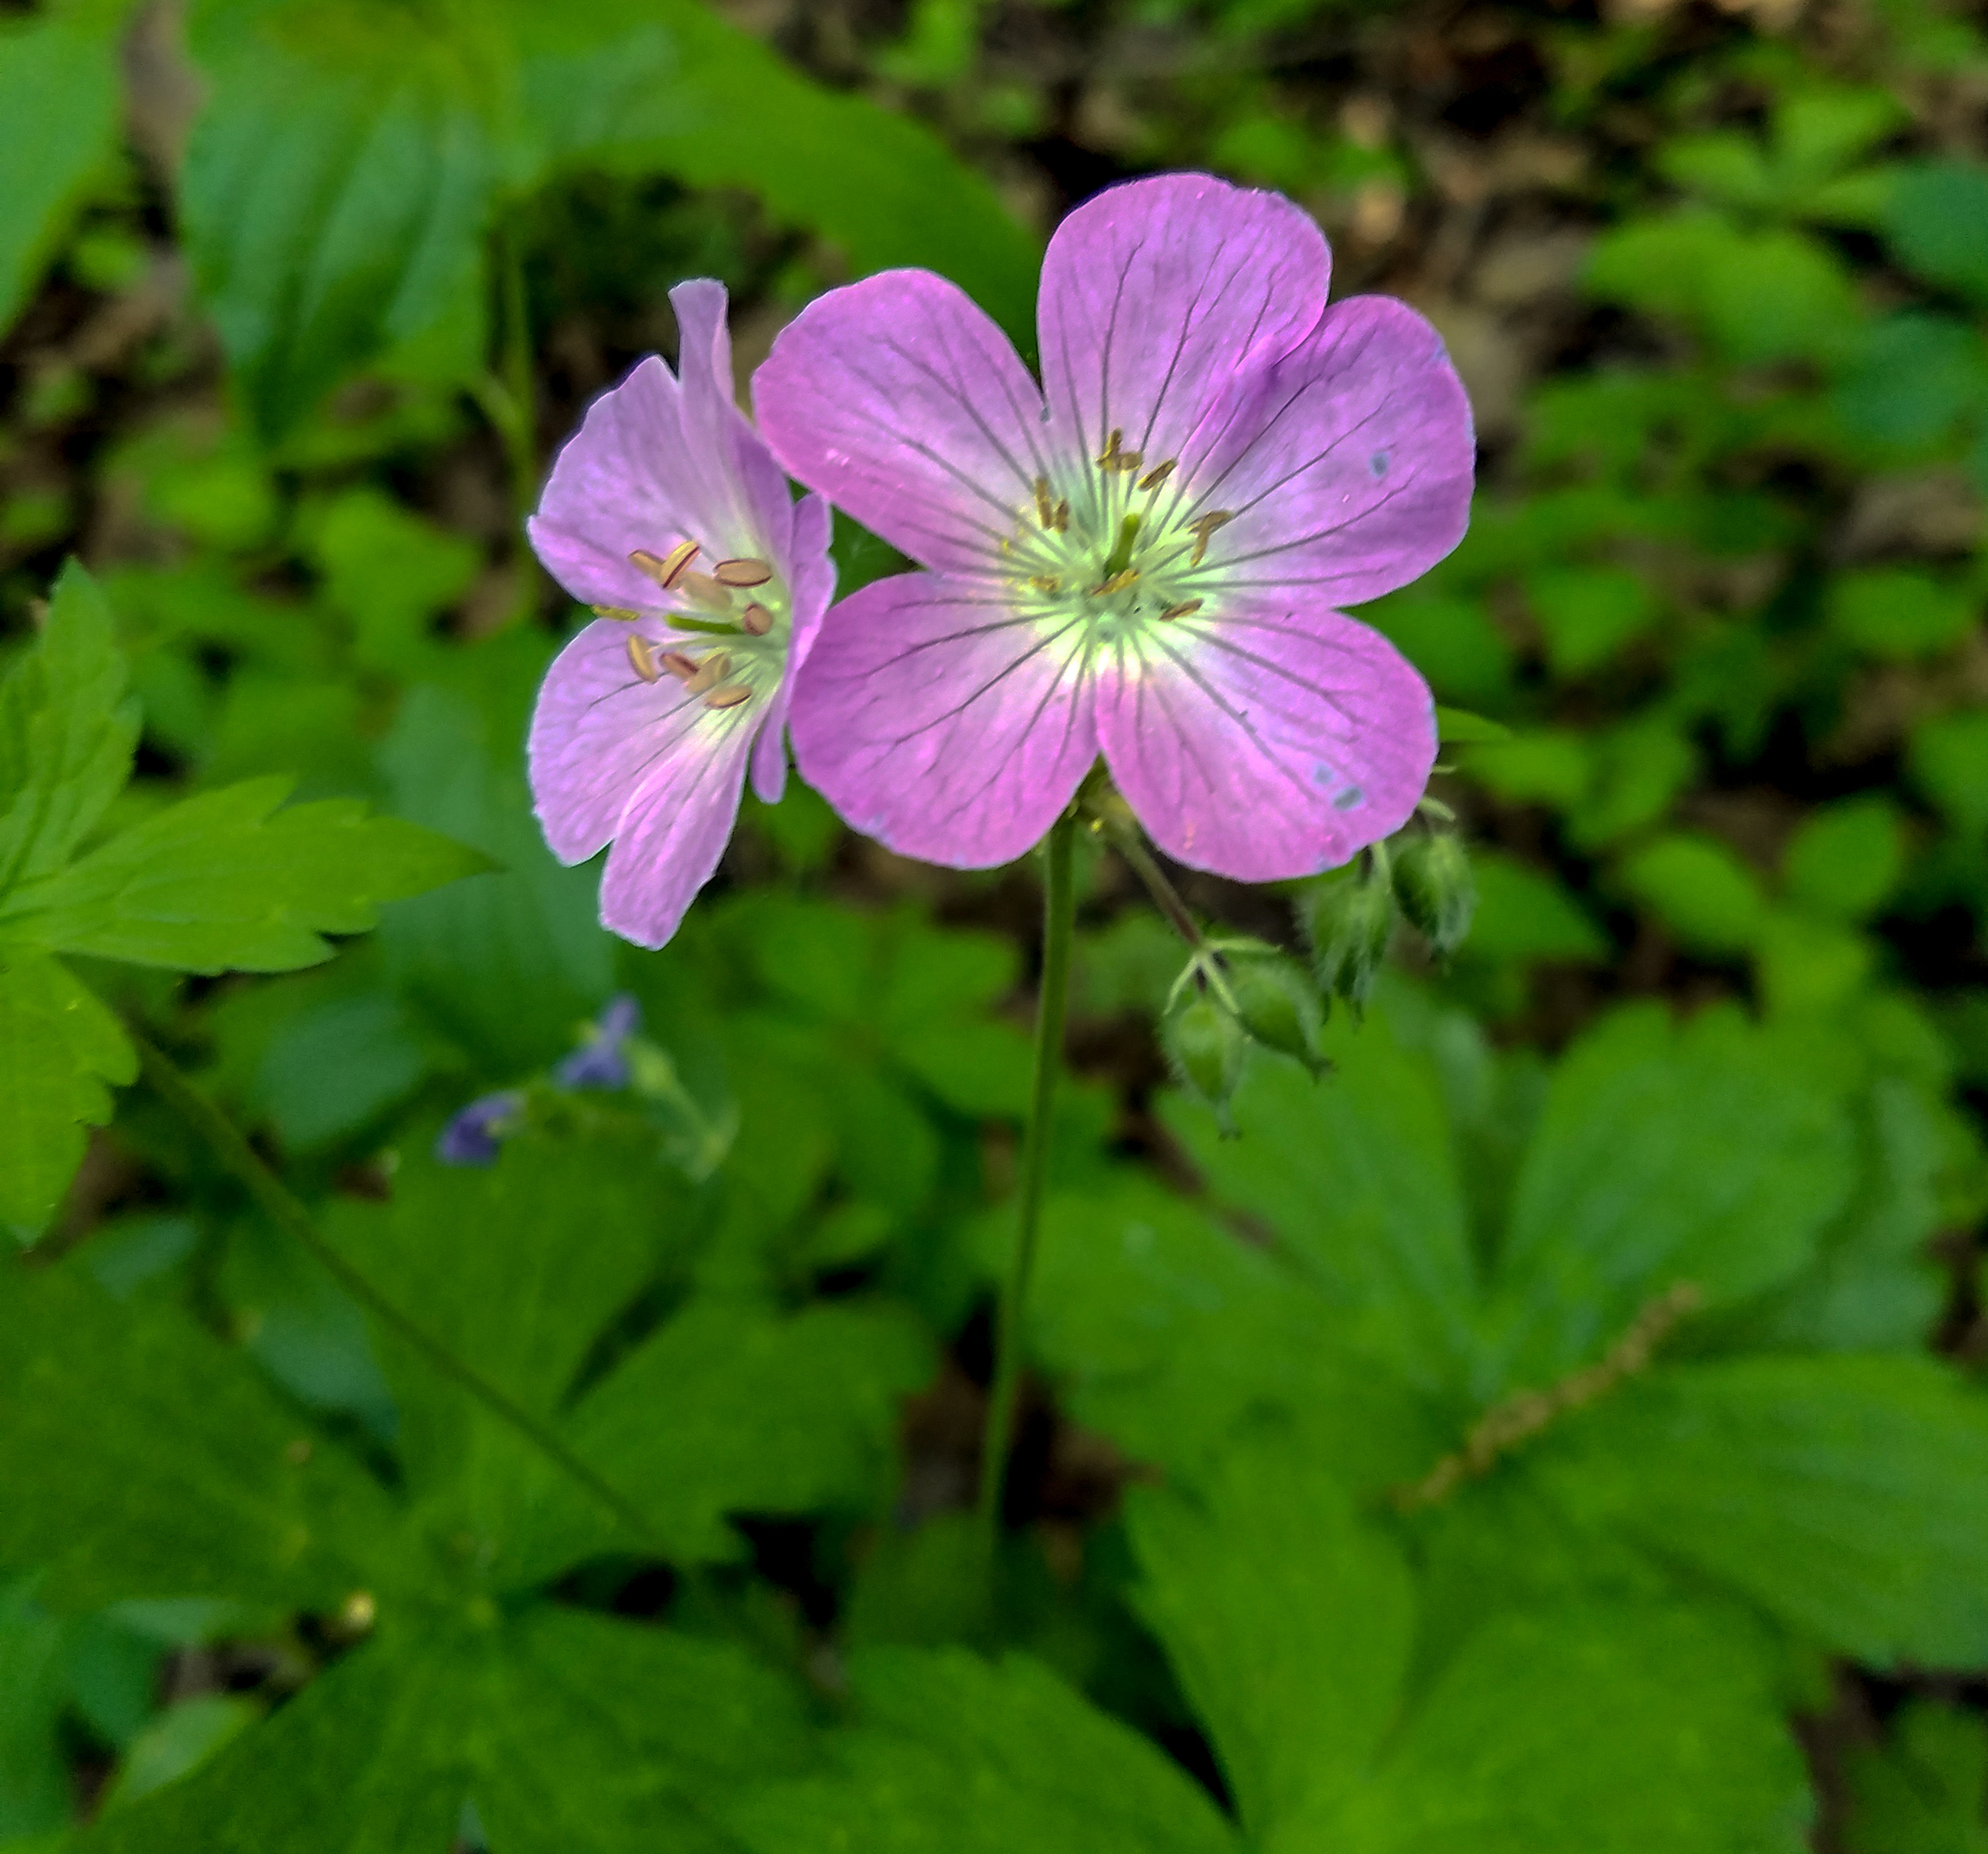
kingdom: Plantae
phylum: Tracheophyta
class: Magnoliopsida
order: Geraniales
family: Geraniaceae
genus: Geranium
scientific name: Geranium maculatum
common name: Spotted geranium
